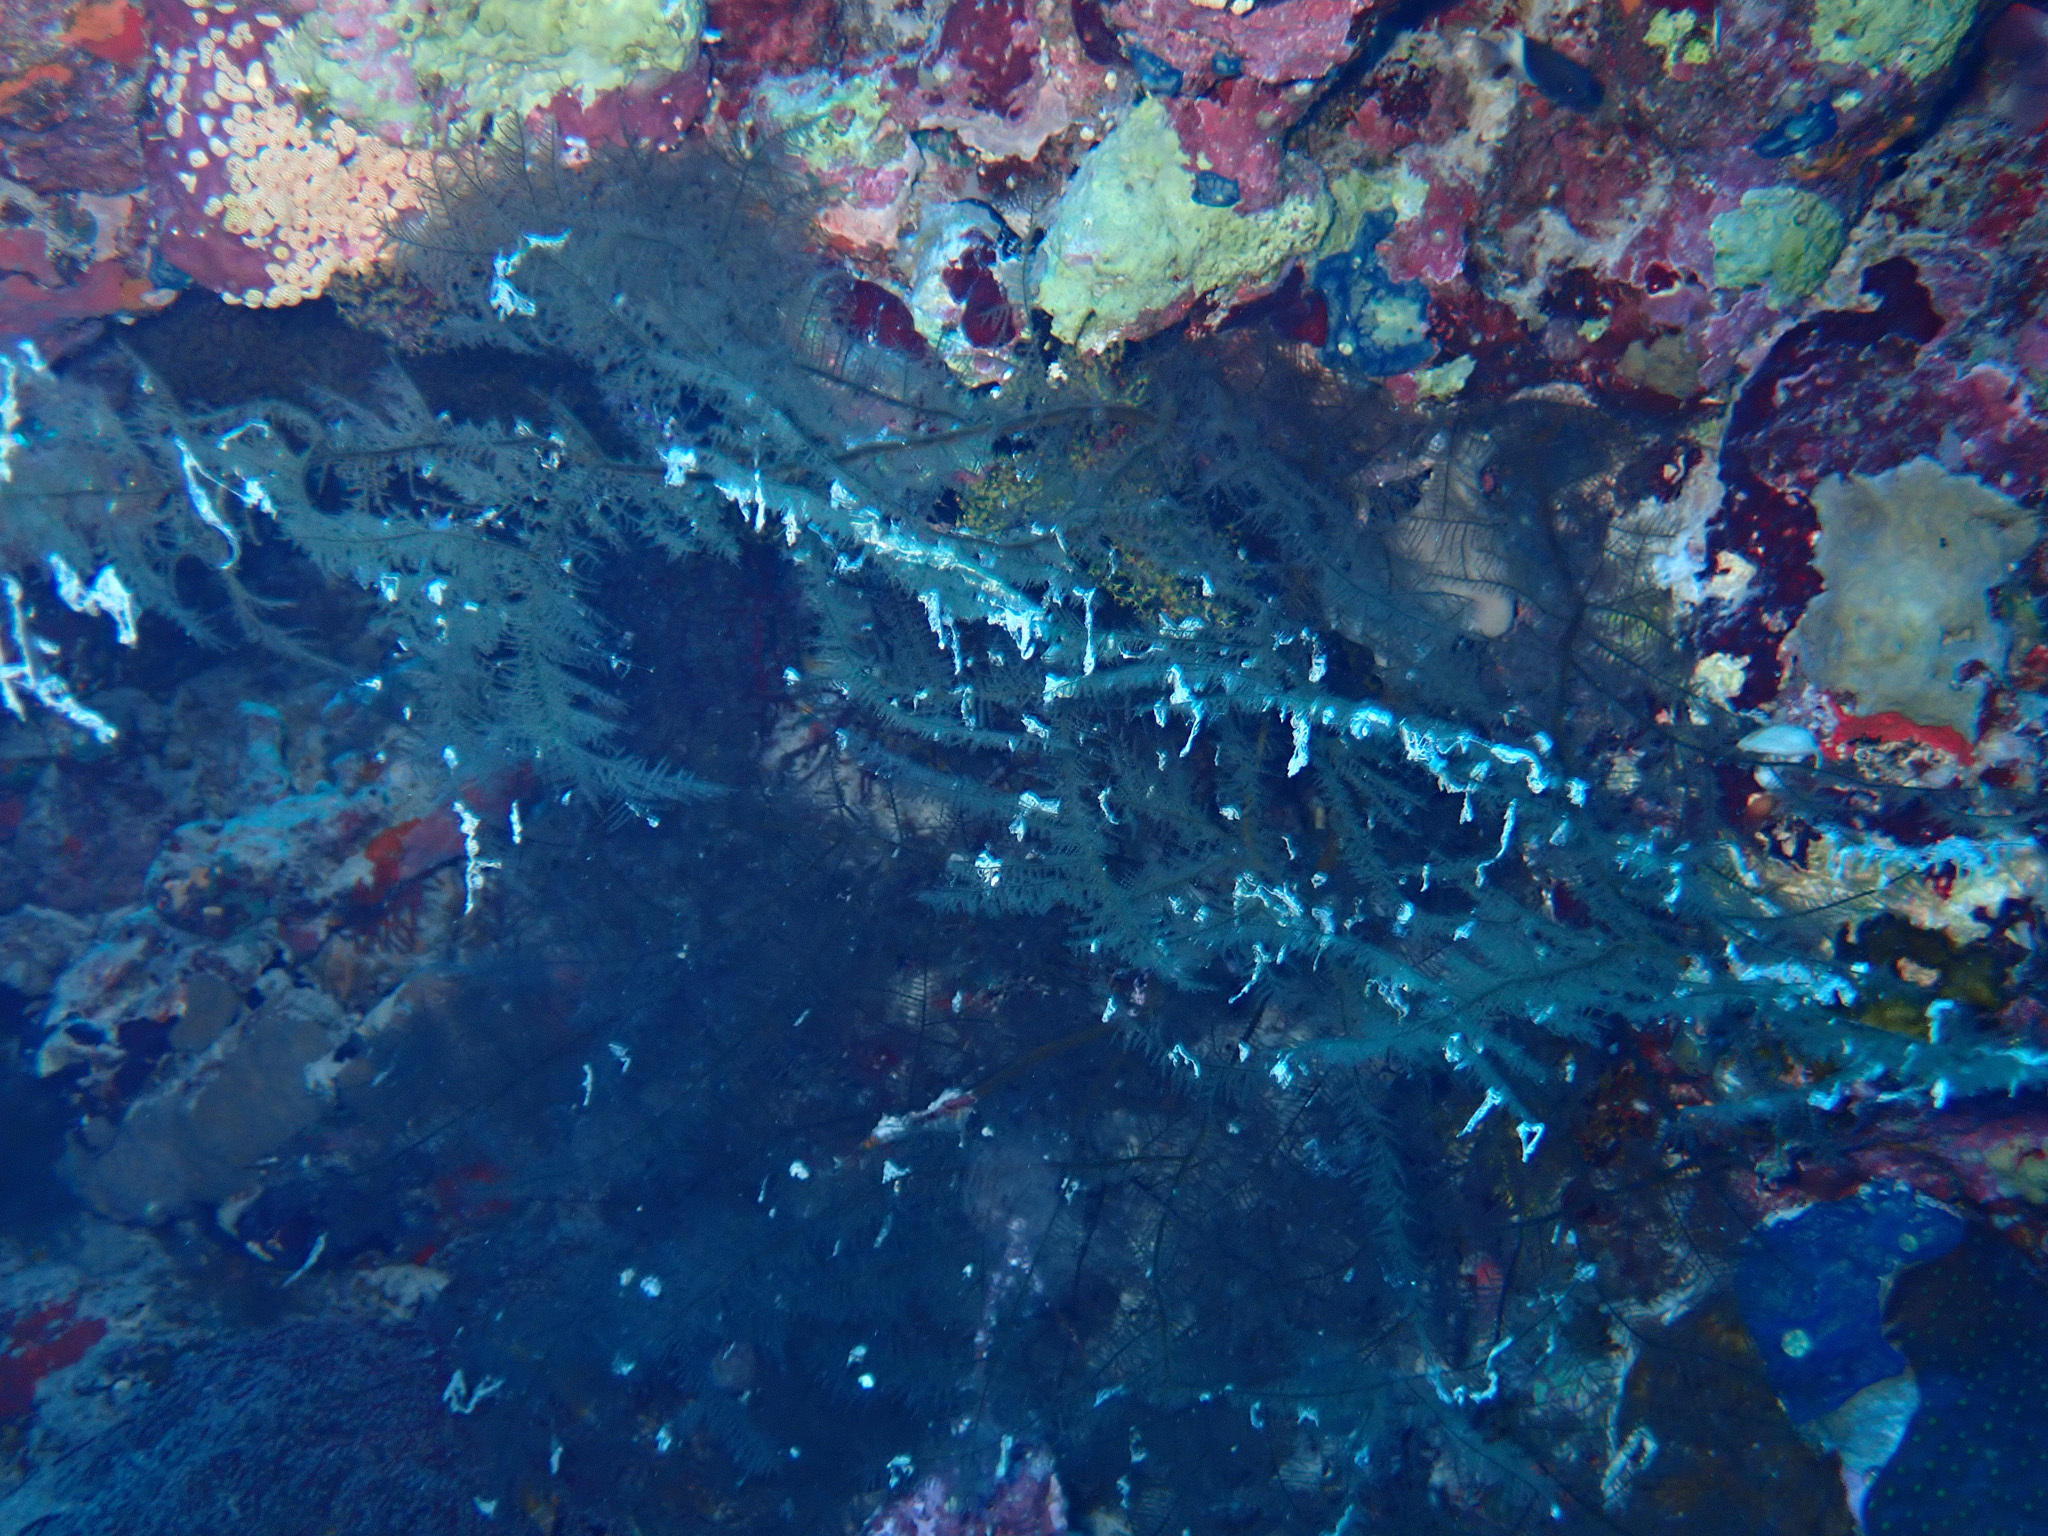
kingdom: Animalia
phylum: Cnidaria
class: Anthozoa
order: Antipatharia
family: Myriopathidae
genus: Myriopathes
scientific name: Myriopathes
